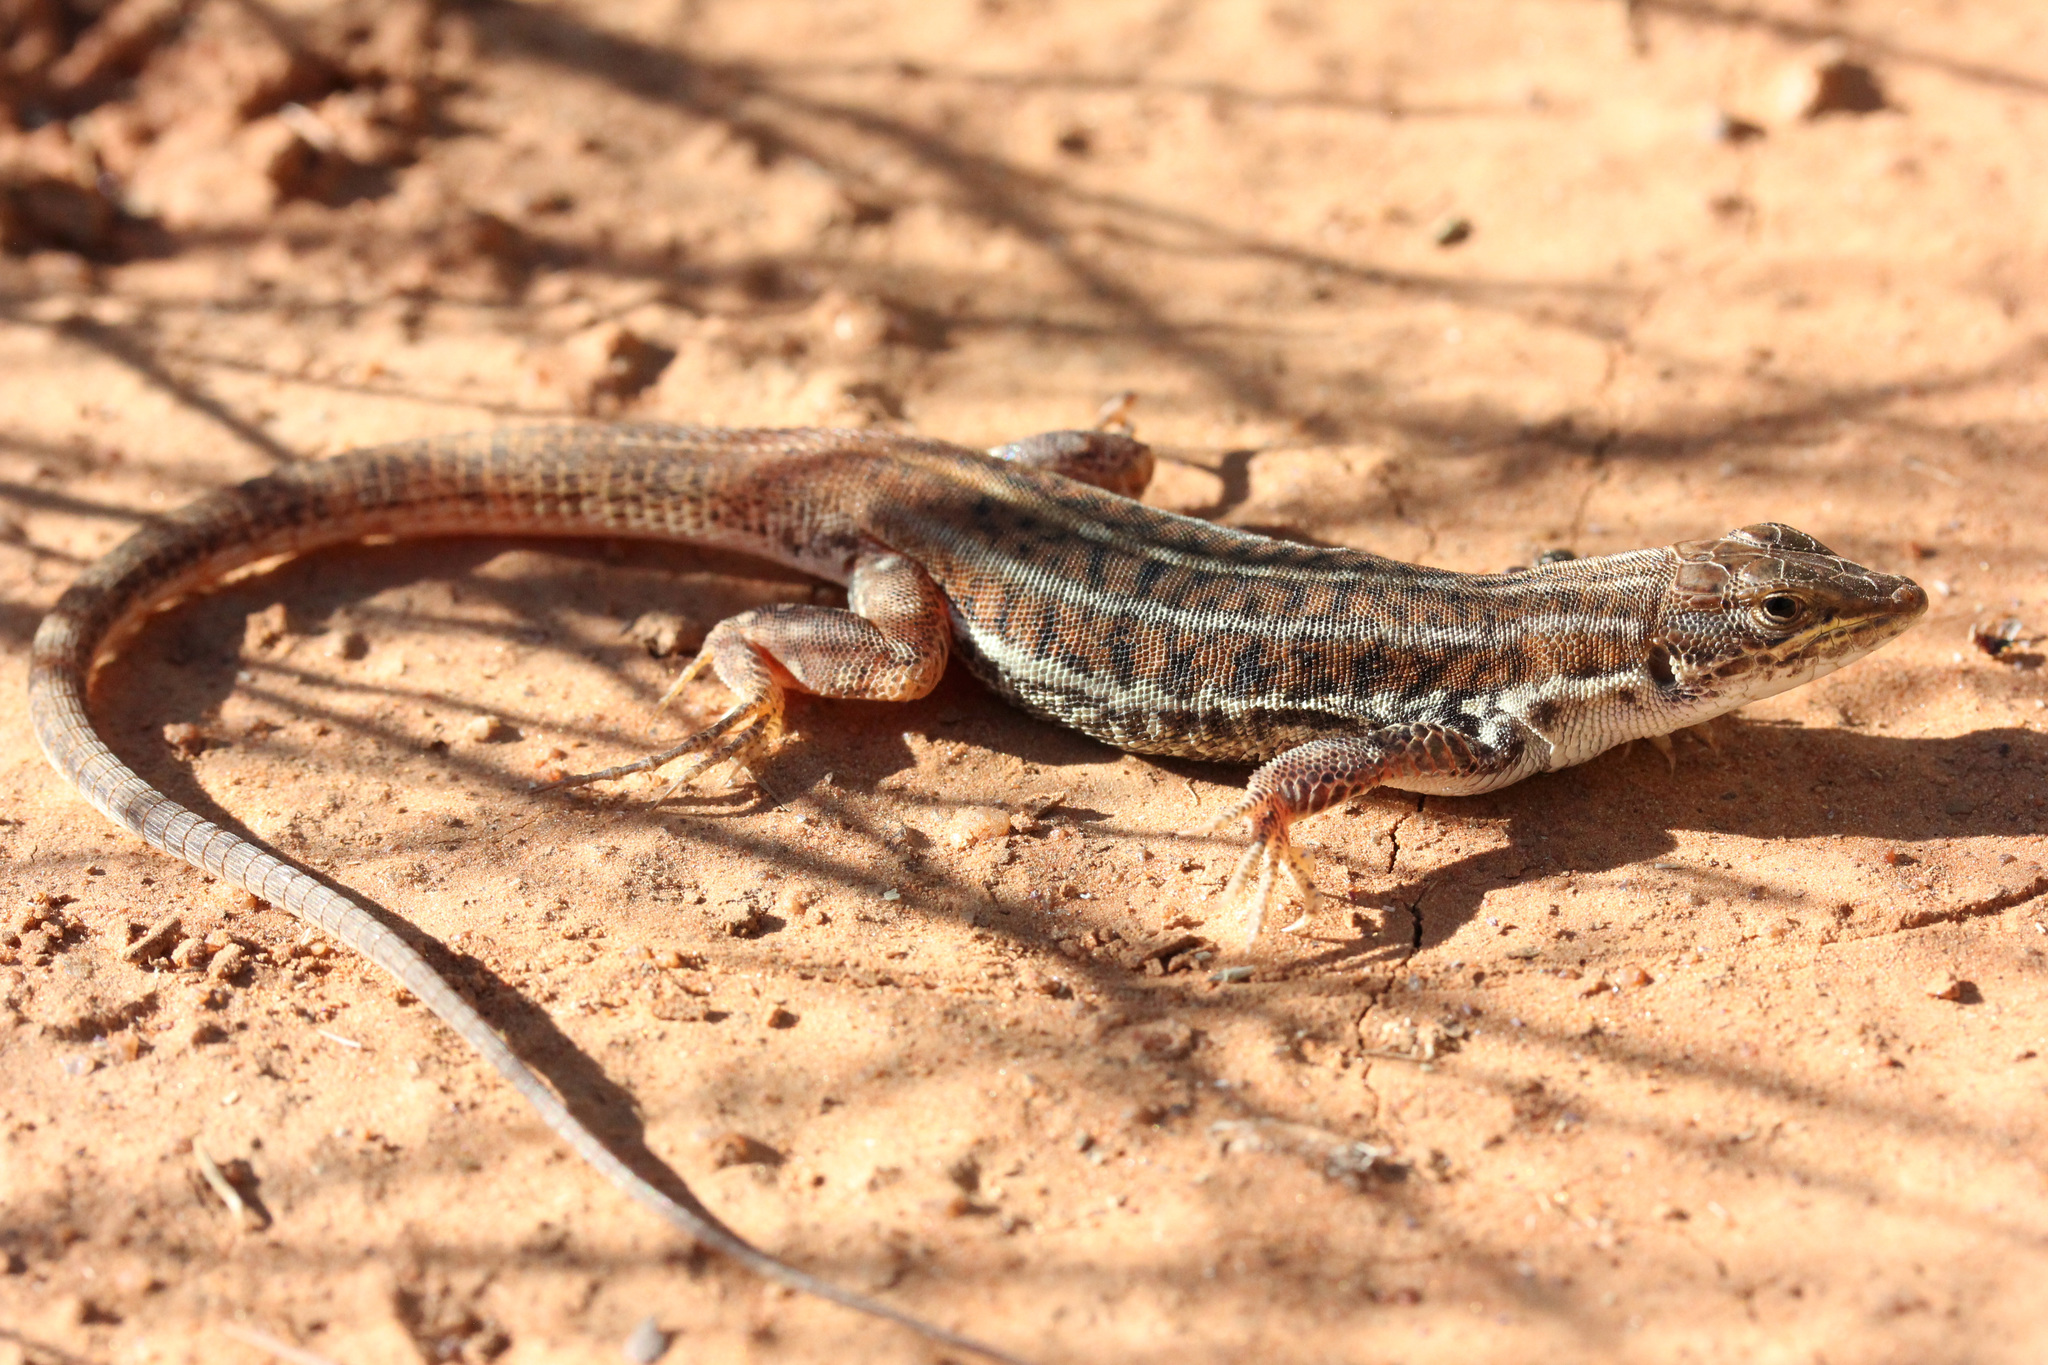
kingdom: Animalia
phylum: Chordata
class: Squamata
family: Lacertidae
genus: Heliobolus
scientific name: Heliobolus lugubris
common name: Bushveld lizard
